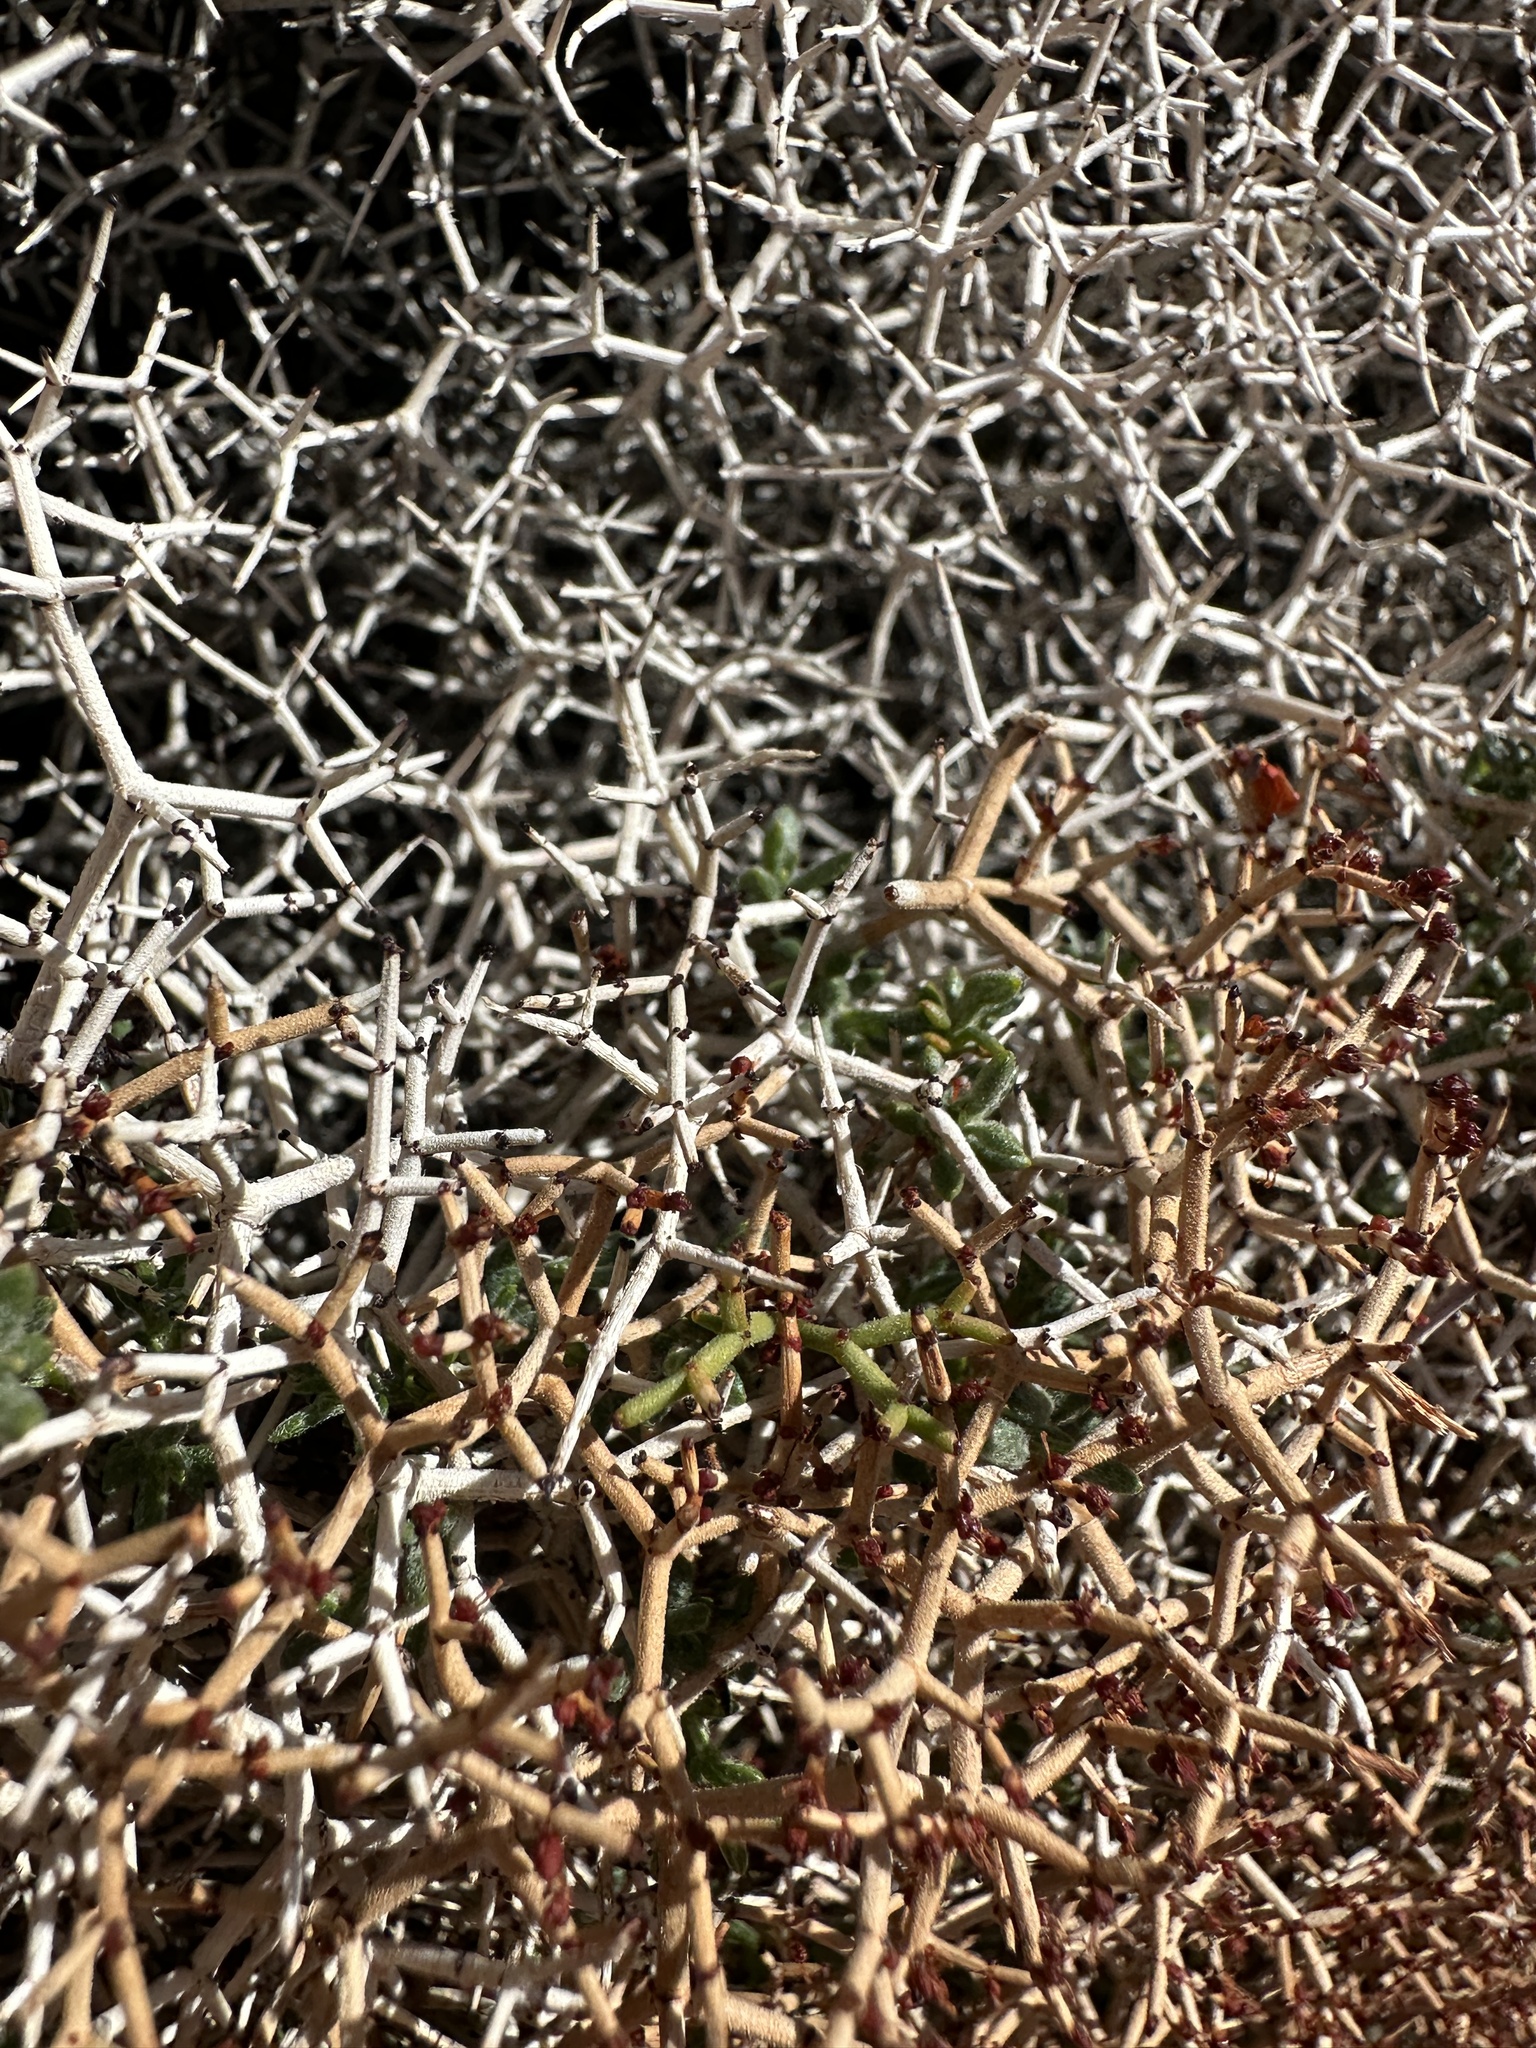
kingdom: Plantae
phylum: Tracheophyta
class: Magnoliopsida
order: Caryophyllales
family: Polygonaceae
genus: Eriogonum
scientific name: Eriogonum heermannii
